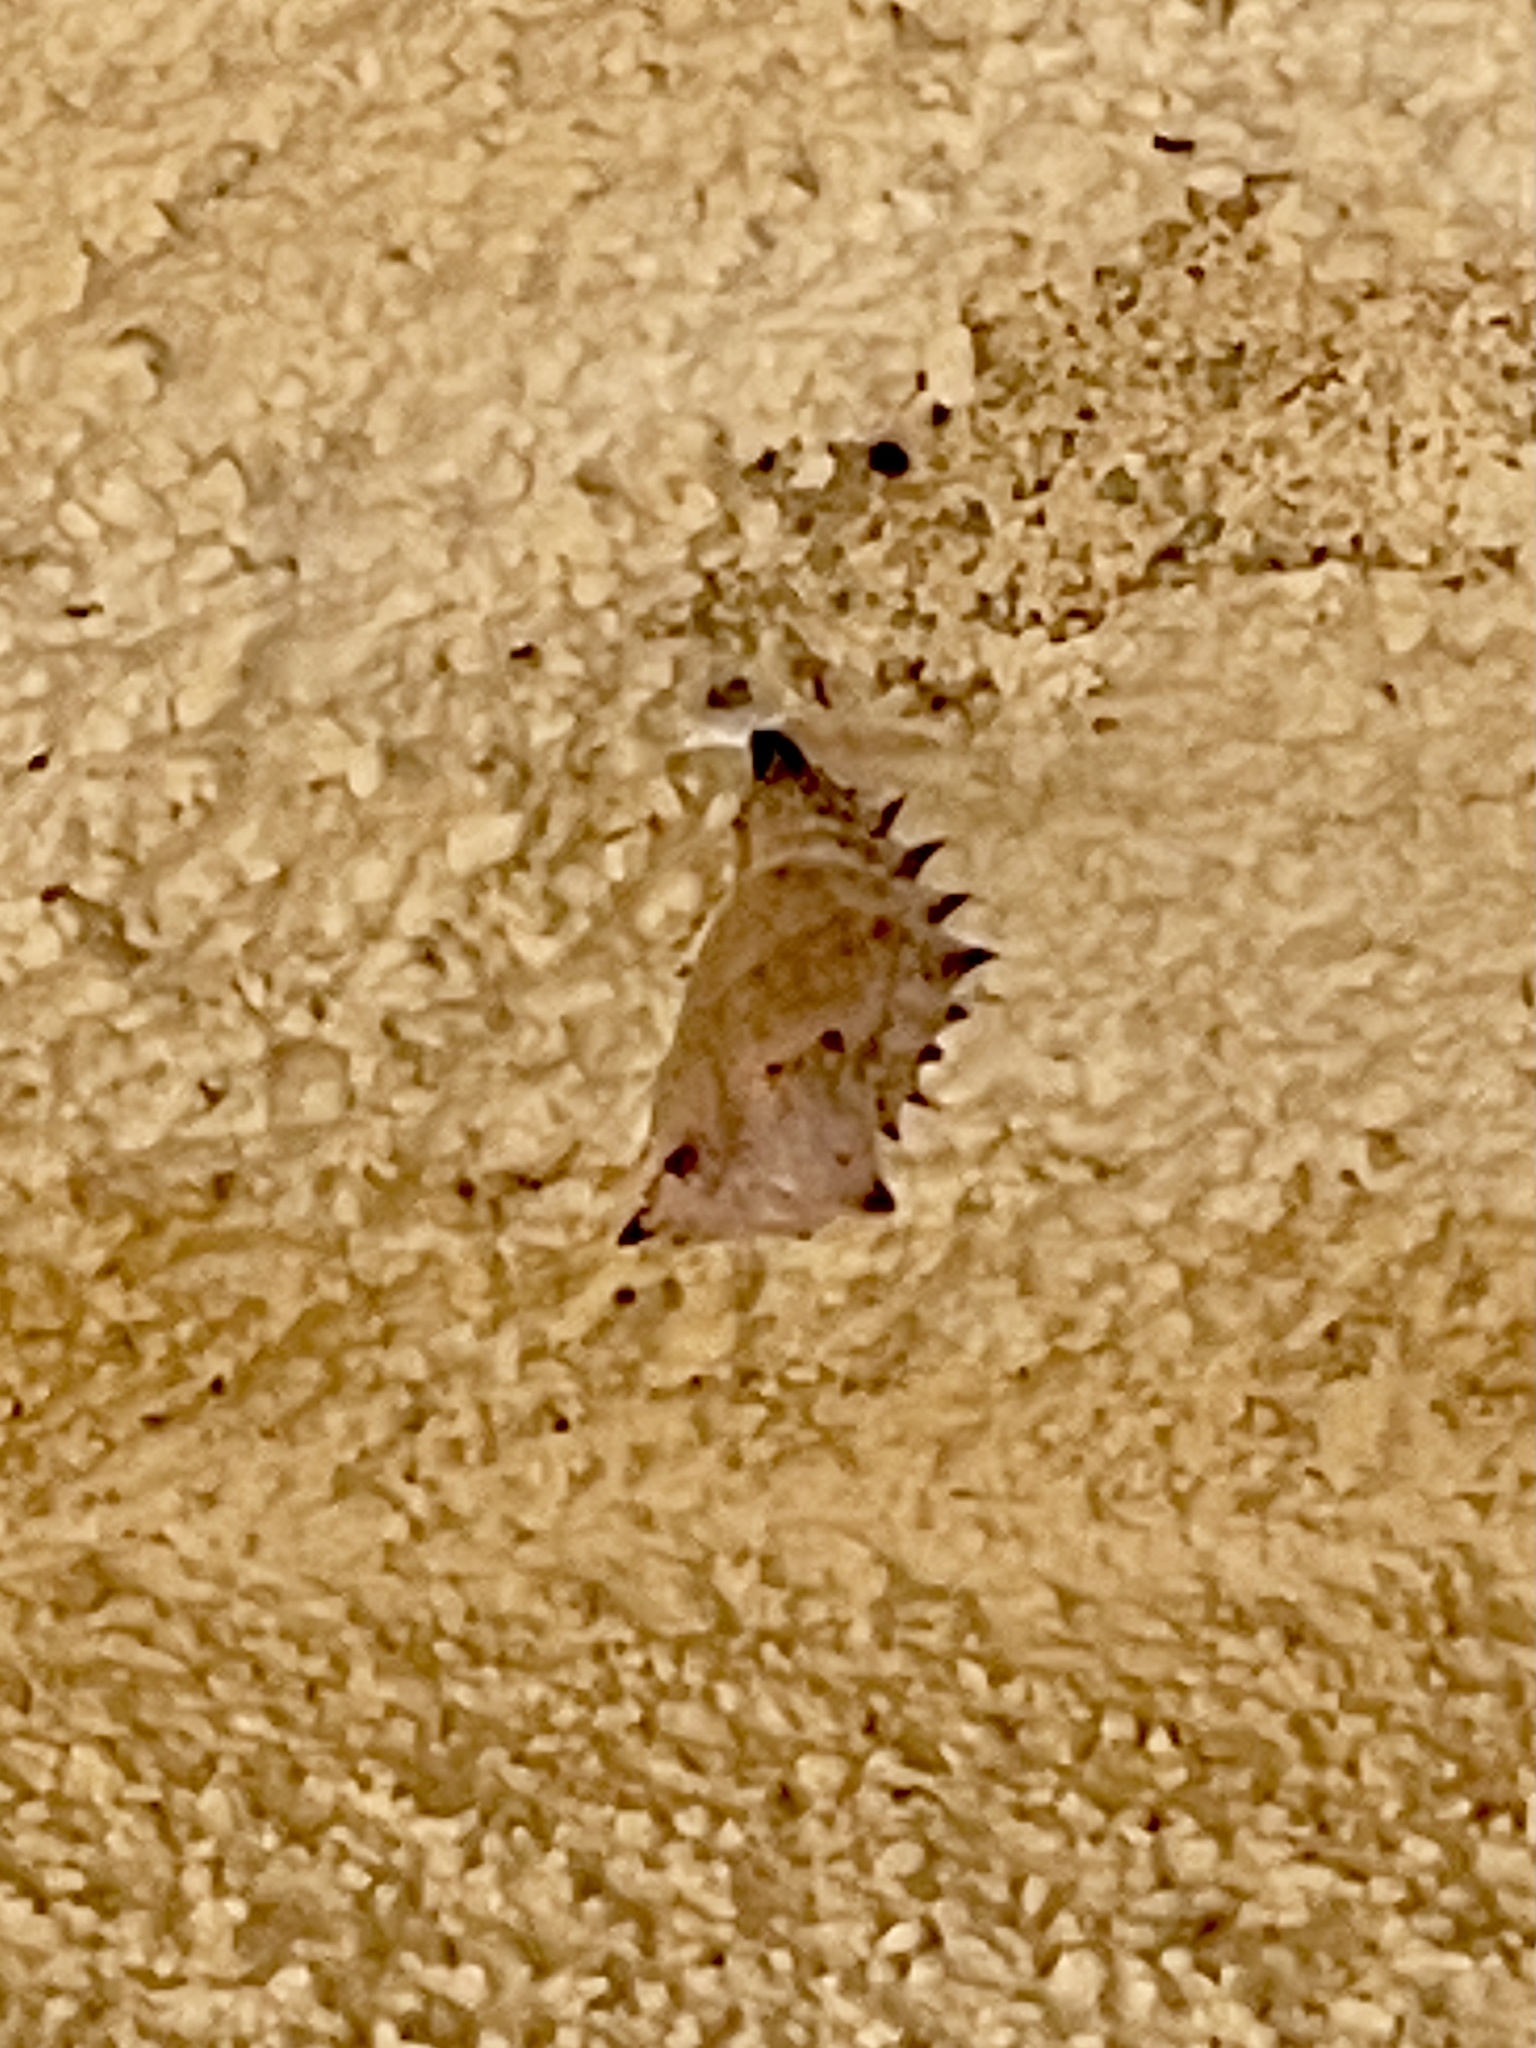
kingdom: Animalia
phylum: Arthropoda
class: Insecta
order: Lepidoptera
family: Nymphalidae
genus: Nymphalis
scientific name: Nymphalis antiopa
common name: Camberwell beauty
